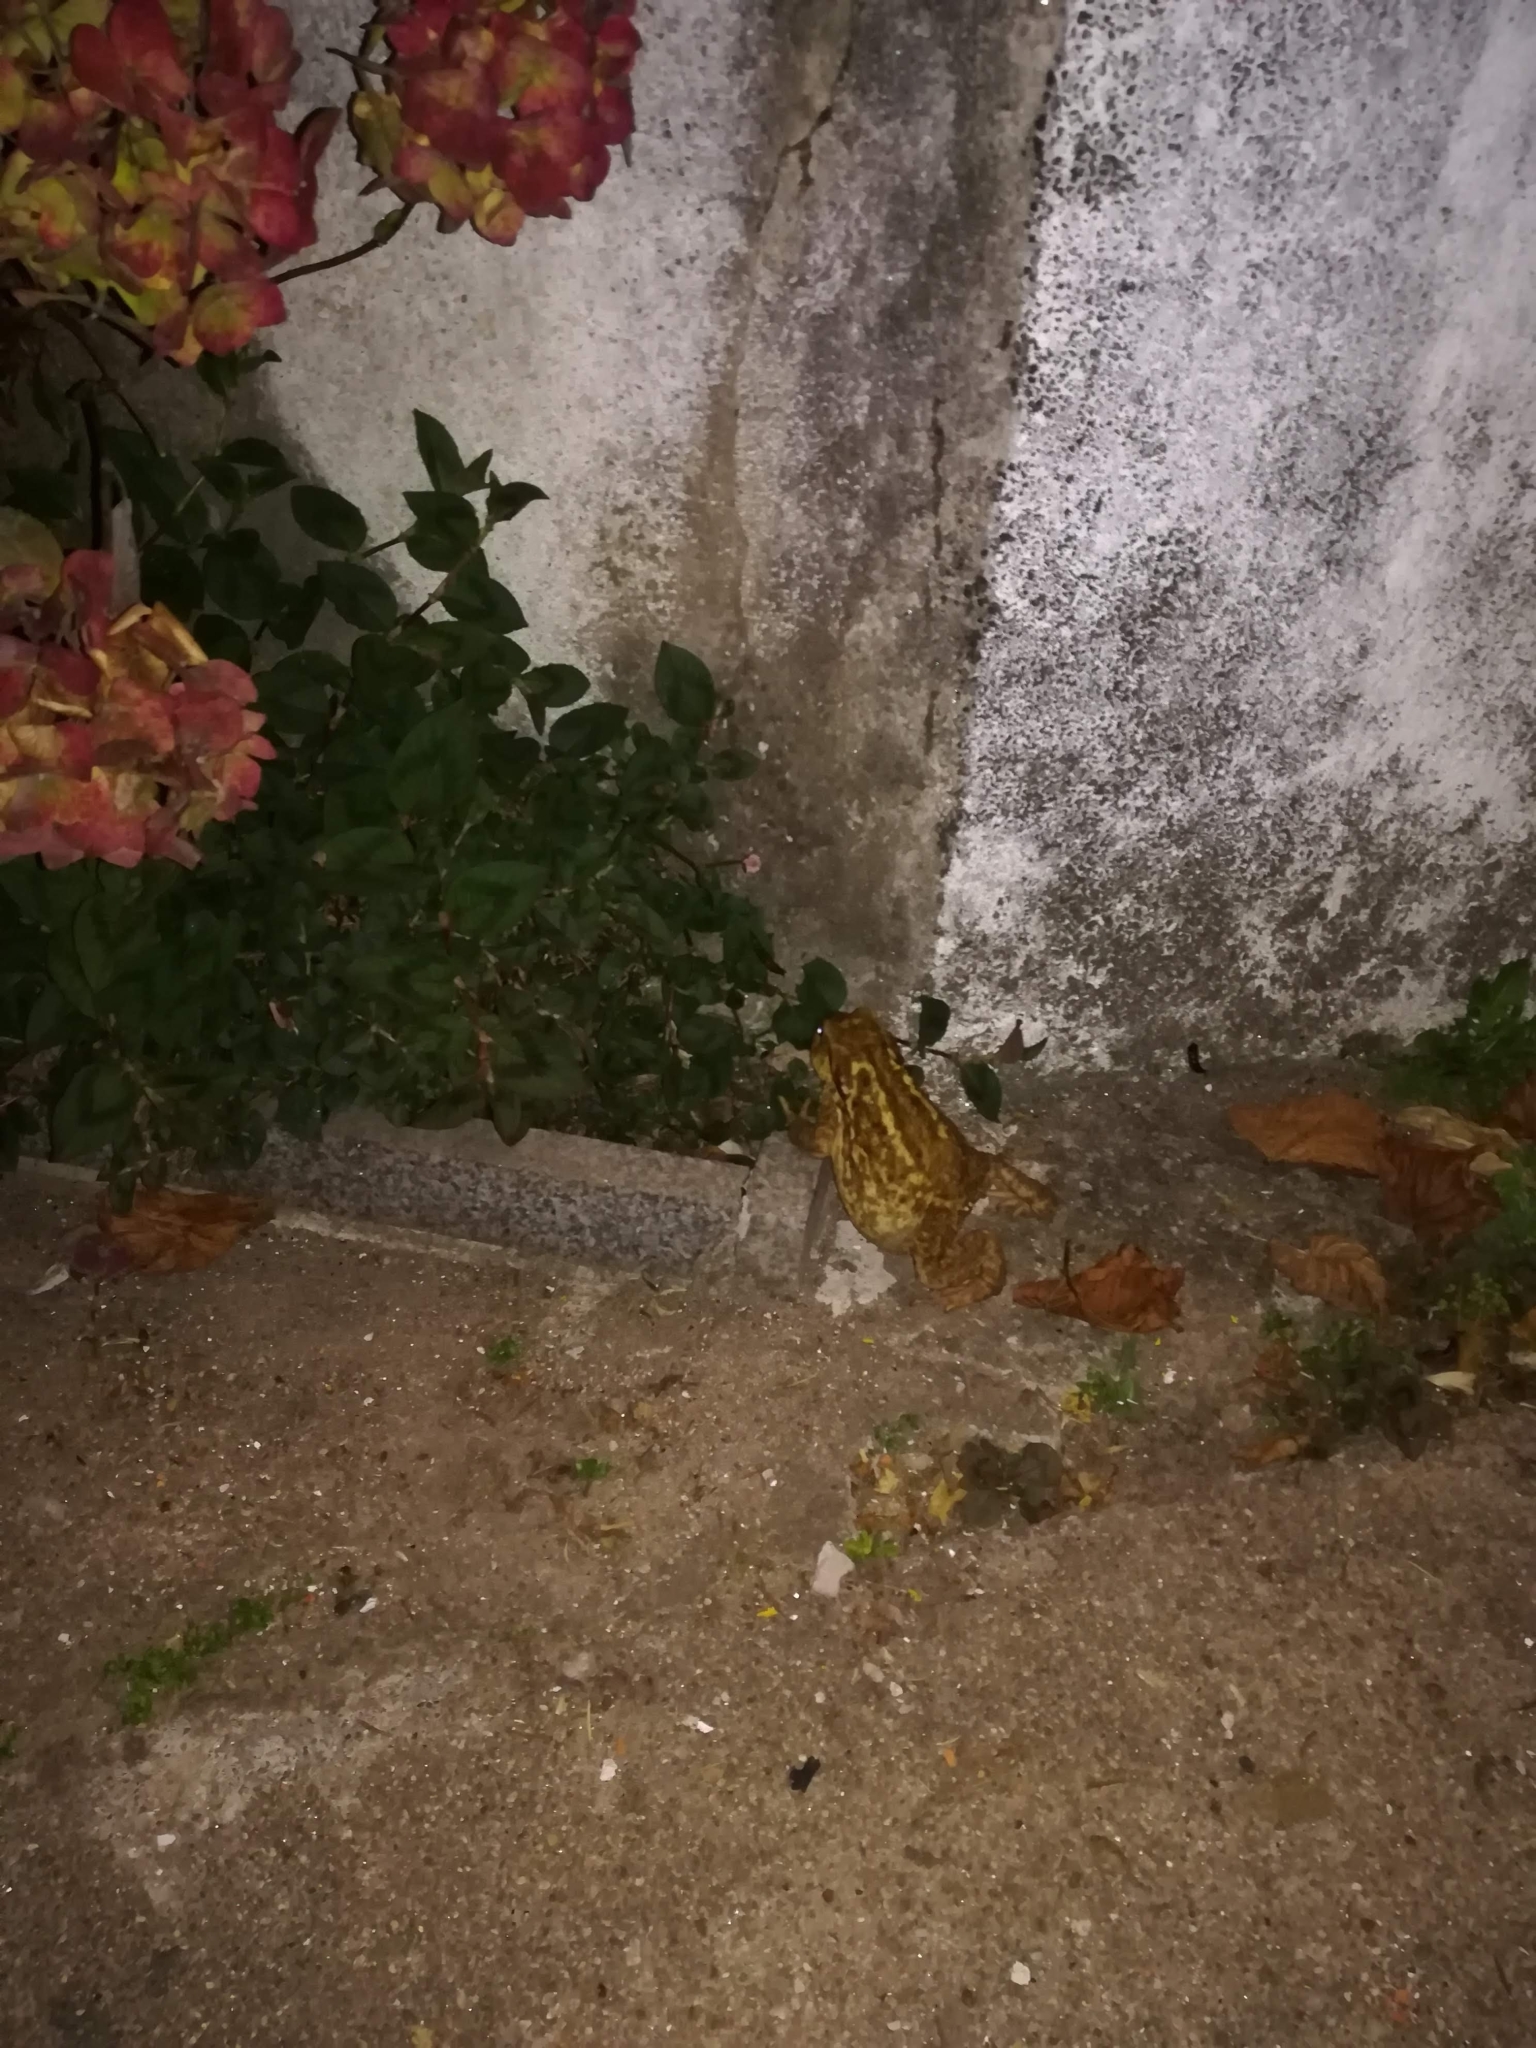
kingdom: Animalia
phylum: Chordata
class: Amphibia
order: Anura
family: Bufonidae
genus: Bufo
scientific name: Bufo spinosus
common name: Western common toad
